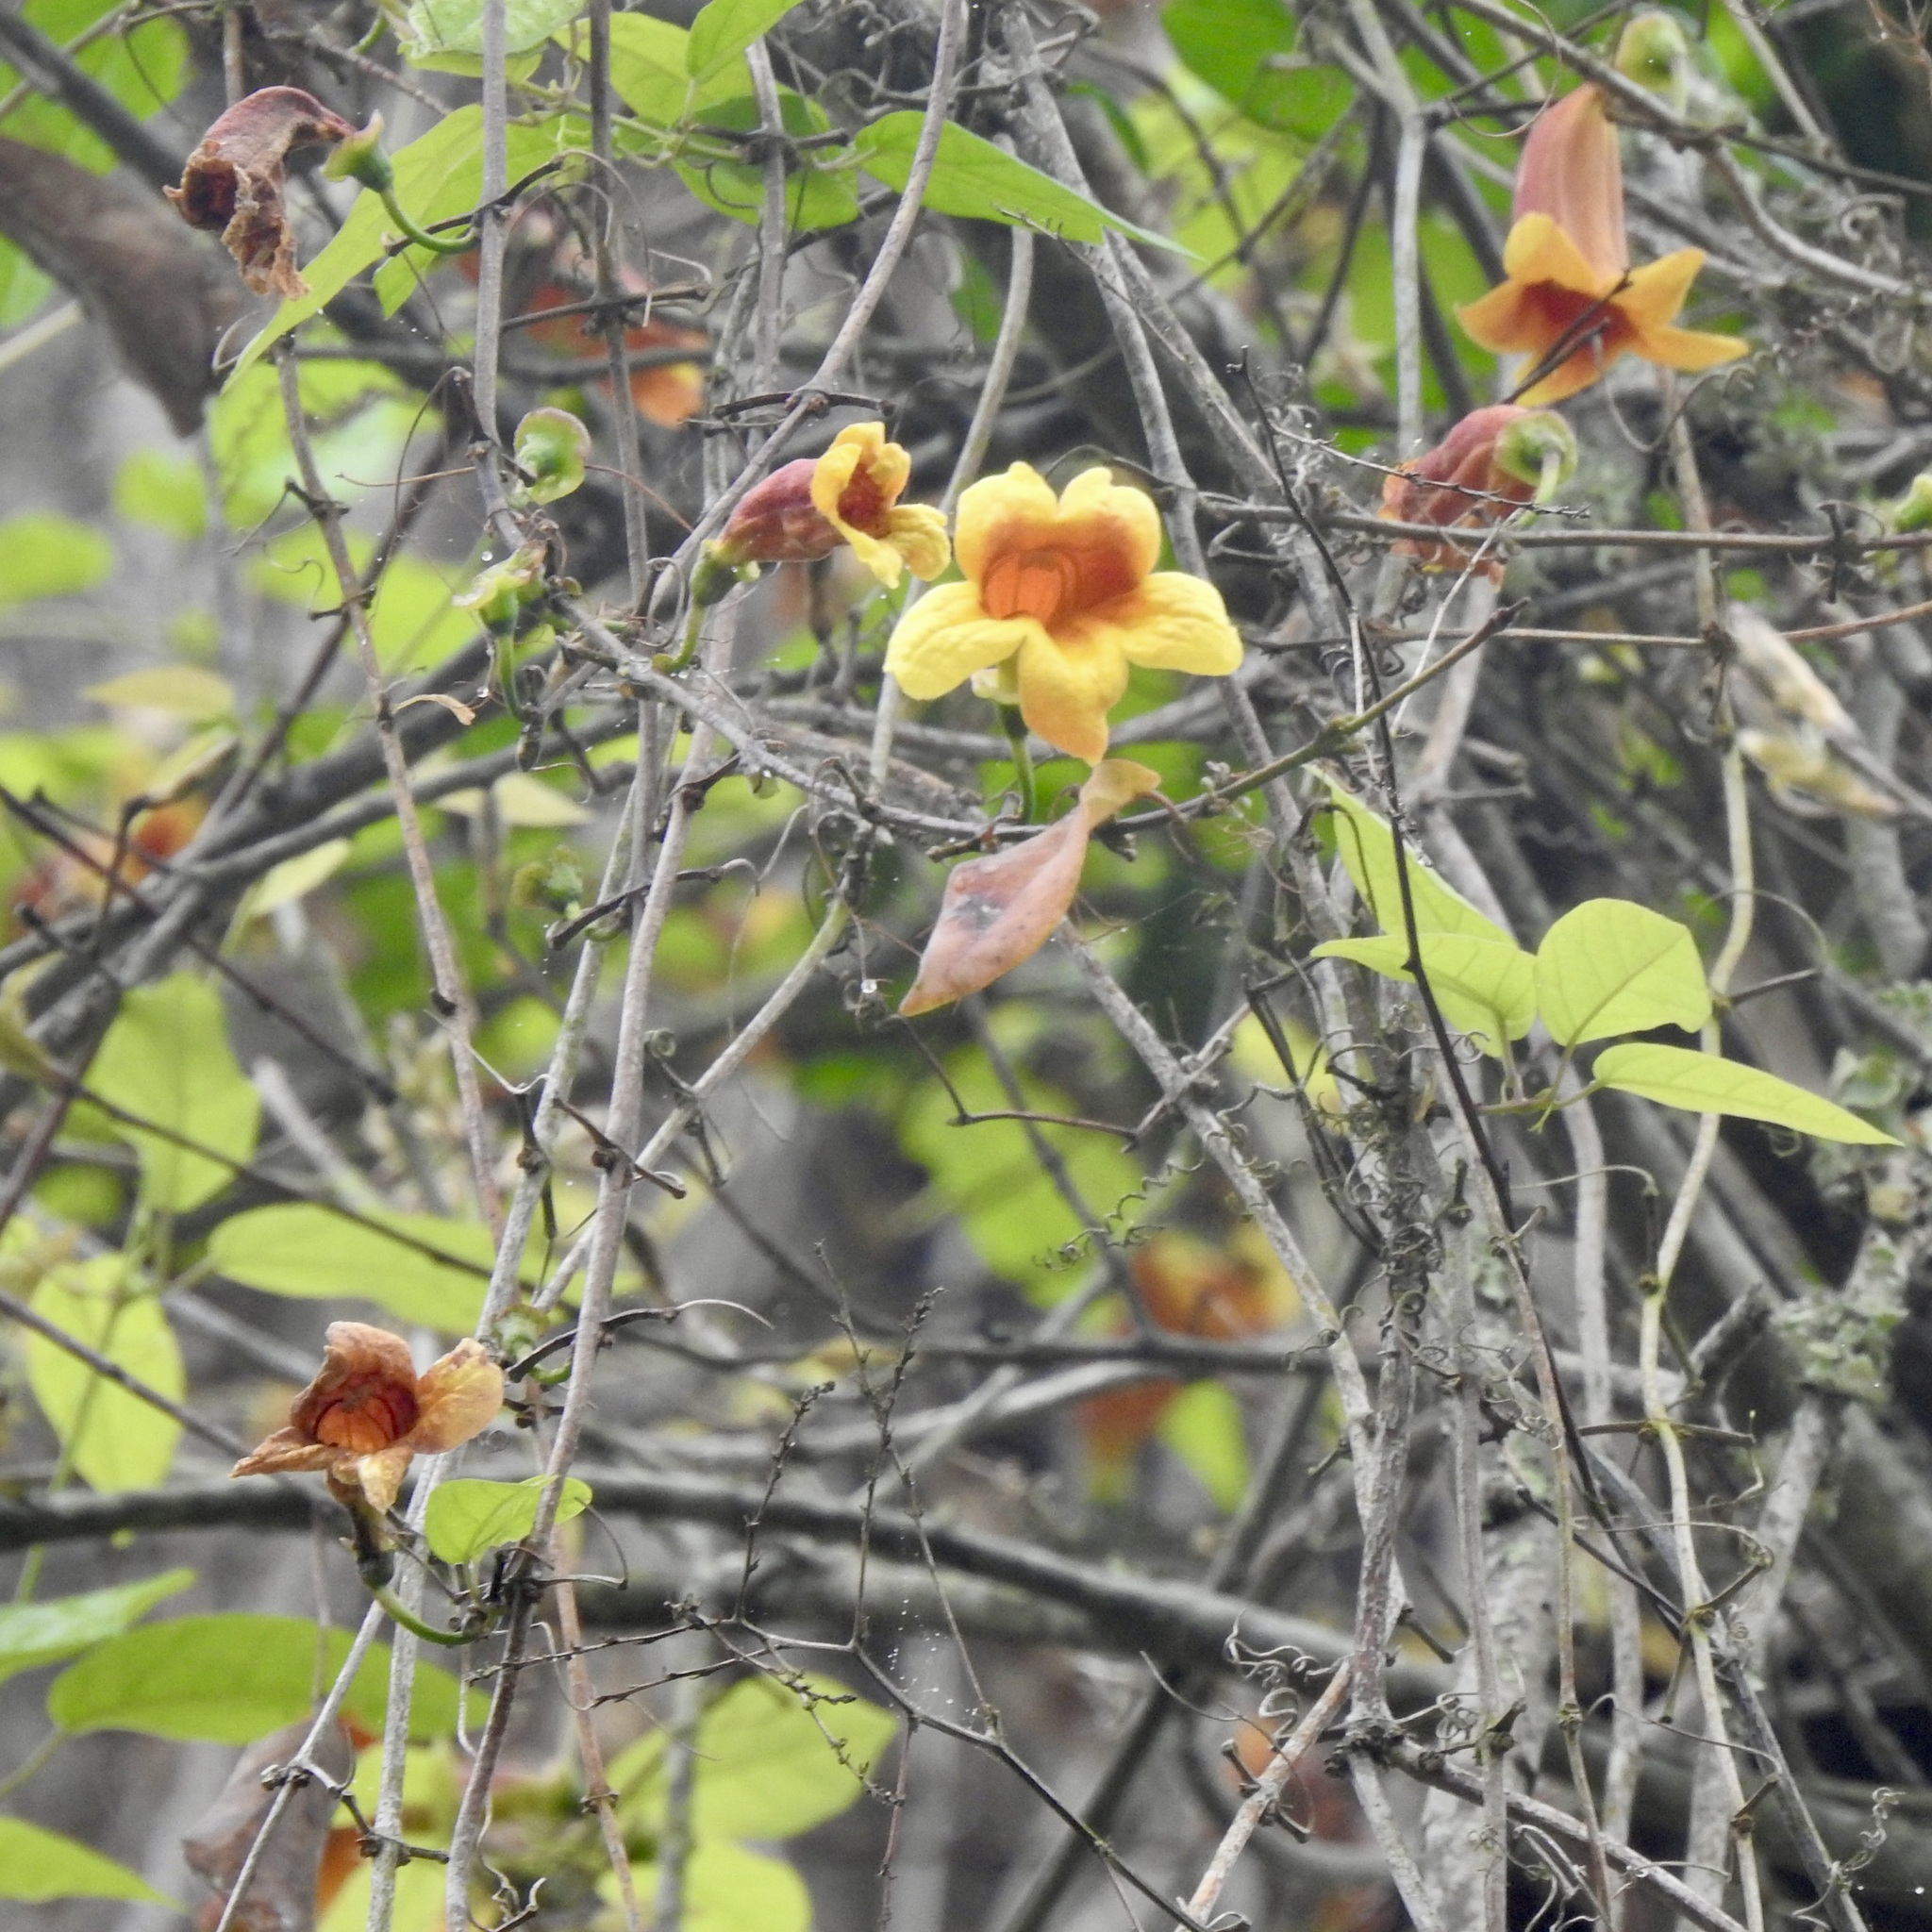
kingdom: Plantae
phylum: Tracheophyta
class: Magnoliopsida
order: Lamiales
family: Bignoniaceae
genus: Bignonia
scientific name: Bignonia capreolata
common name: Crossvine
